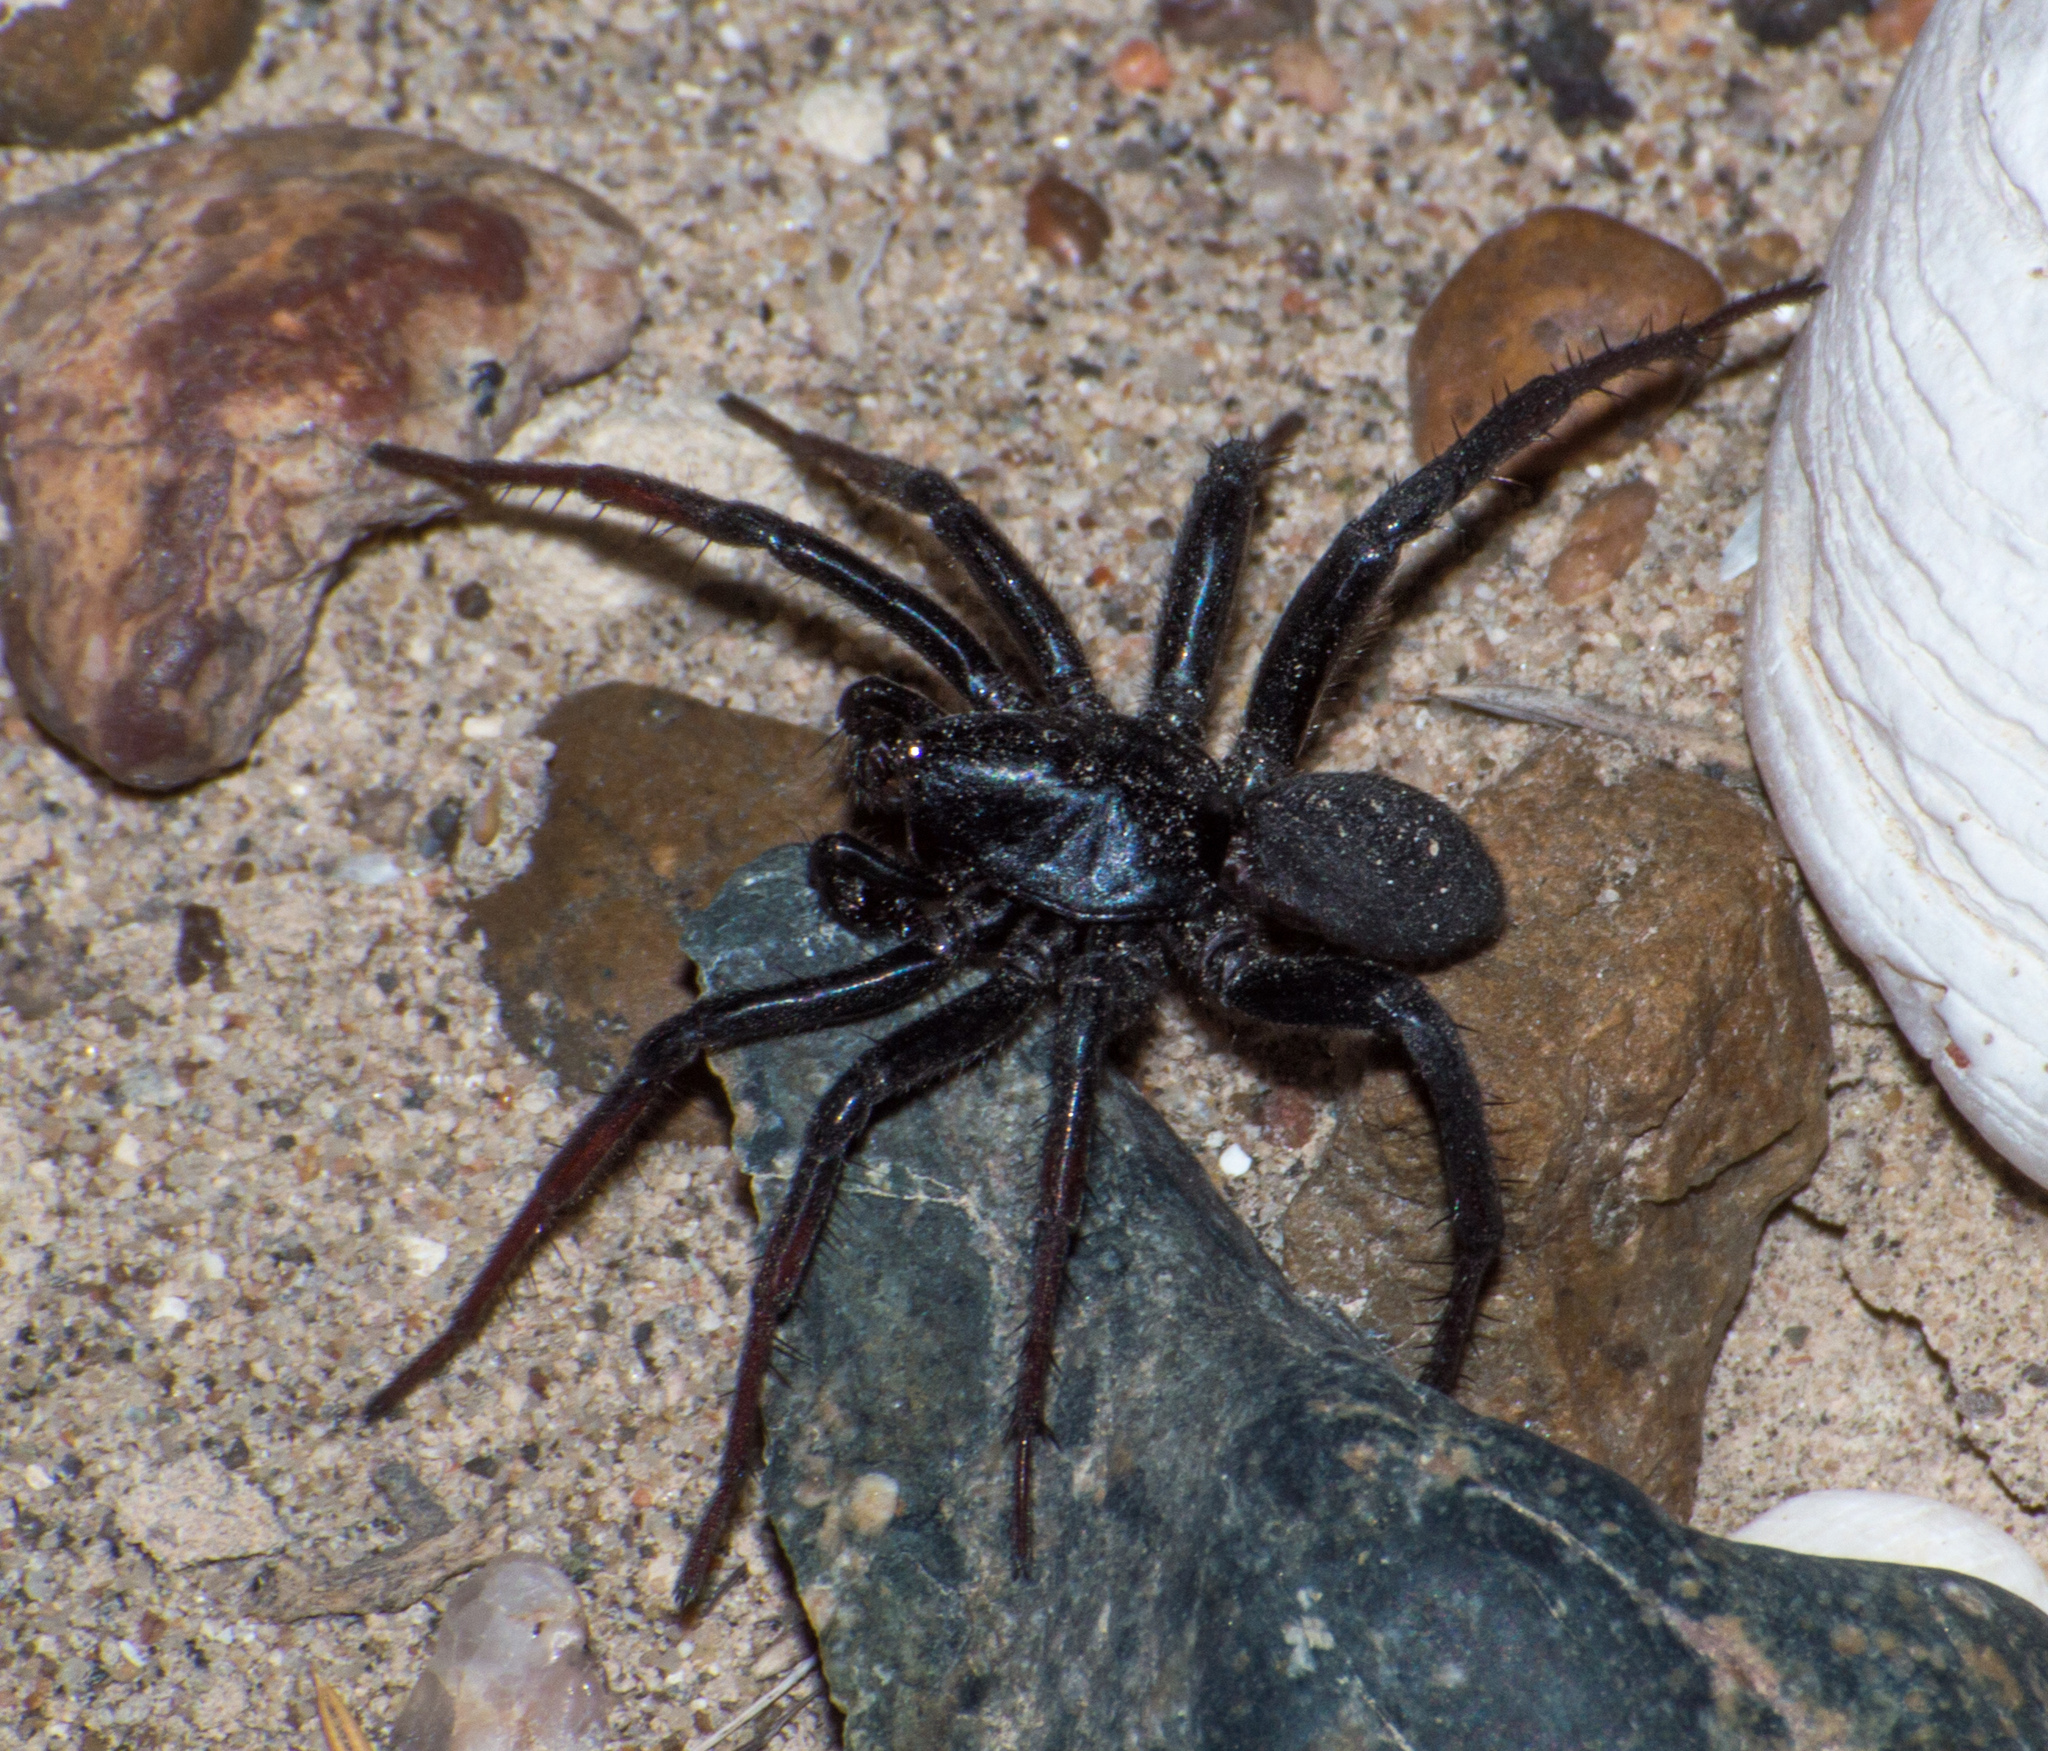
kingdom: Animalia
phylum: Arthropoda
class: Arachnida
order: Araneae
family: Zodariidae
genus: Cybaeodamus
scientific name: Cybaeodamus enigmaticus
